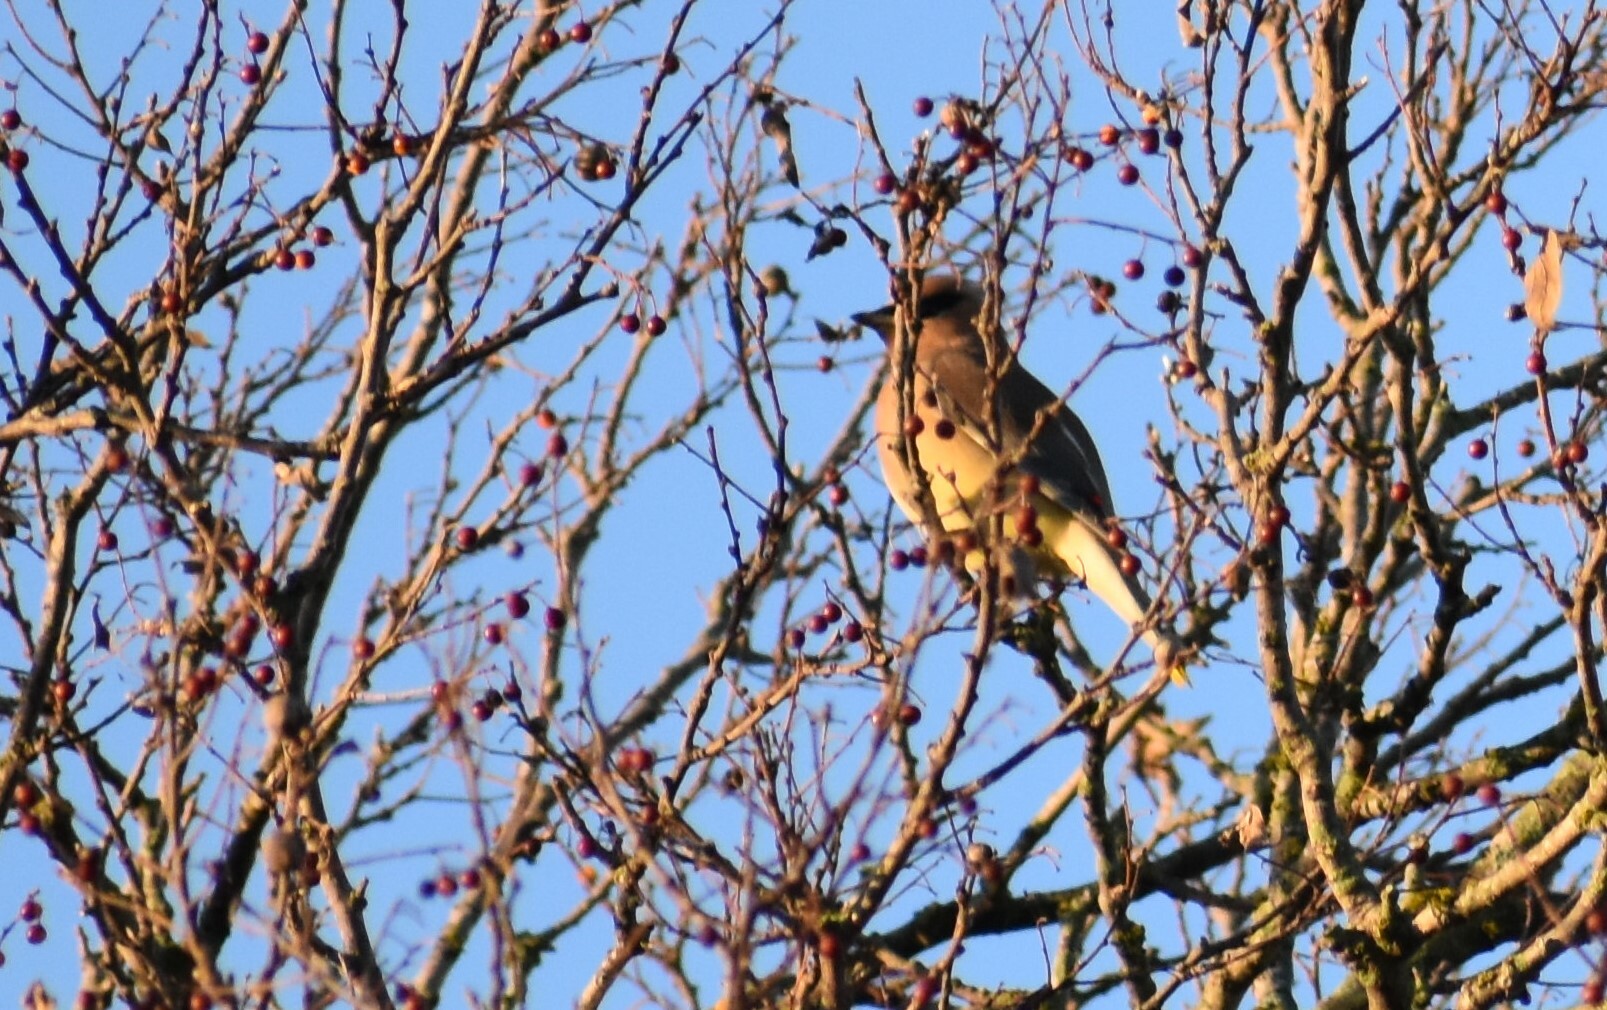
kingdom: Animalia
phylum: Chordata
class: Aves
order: Passeriformes
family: Bombycillidae
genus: Bombycilla
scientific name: Bombycilla cedrorum
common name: Cedar waxwing
